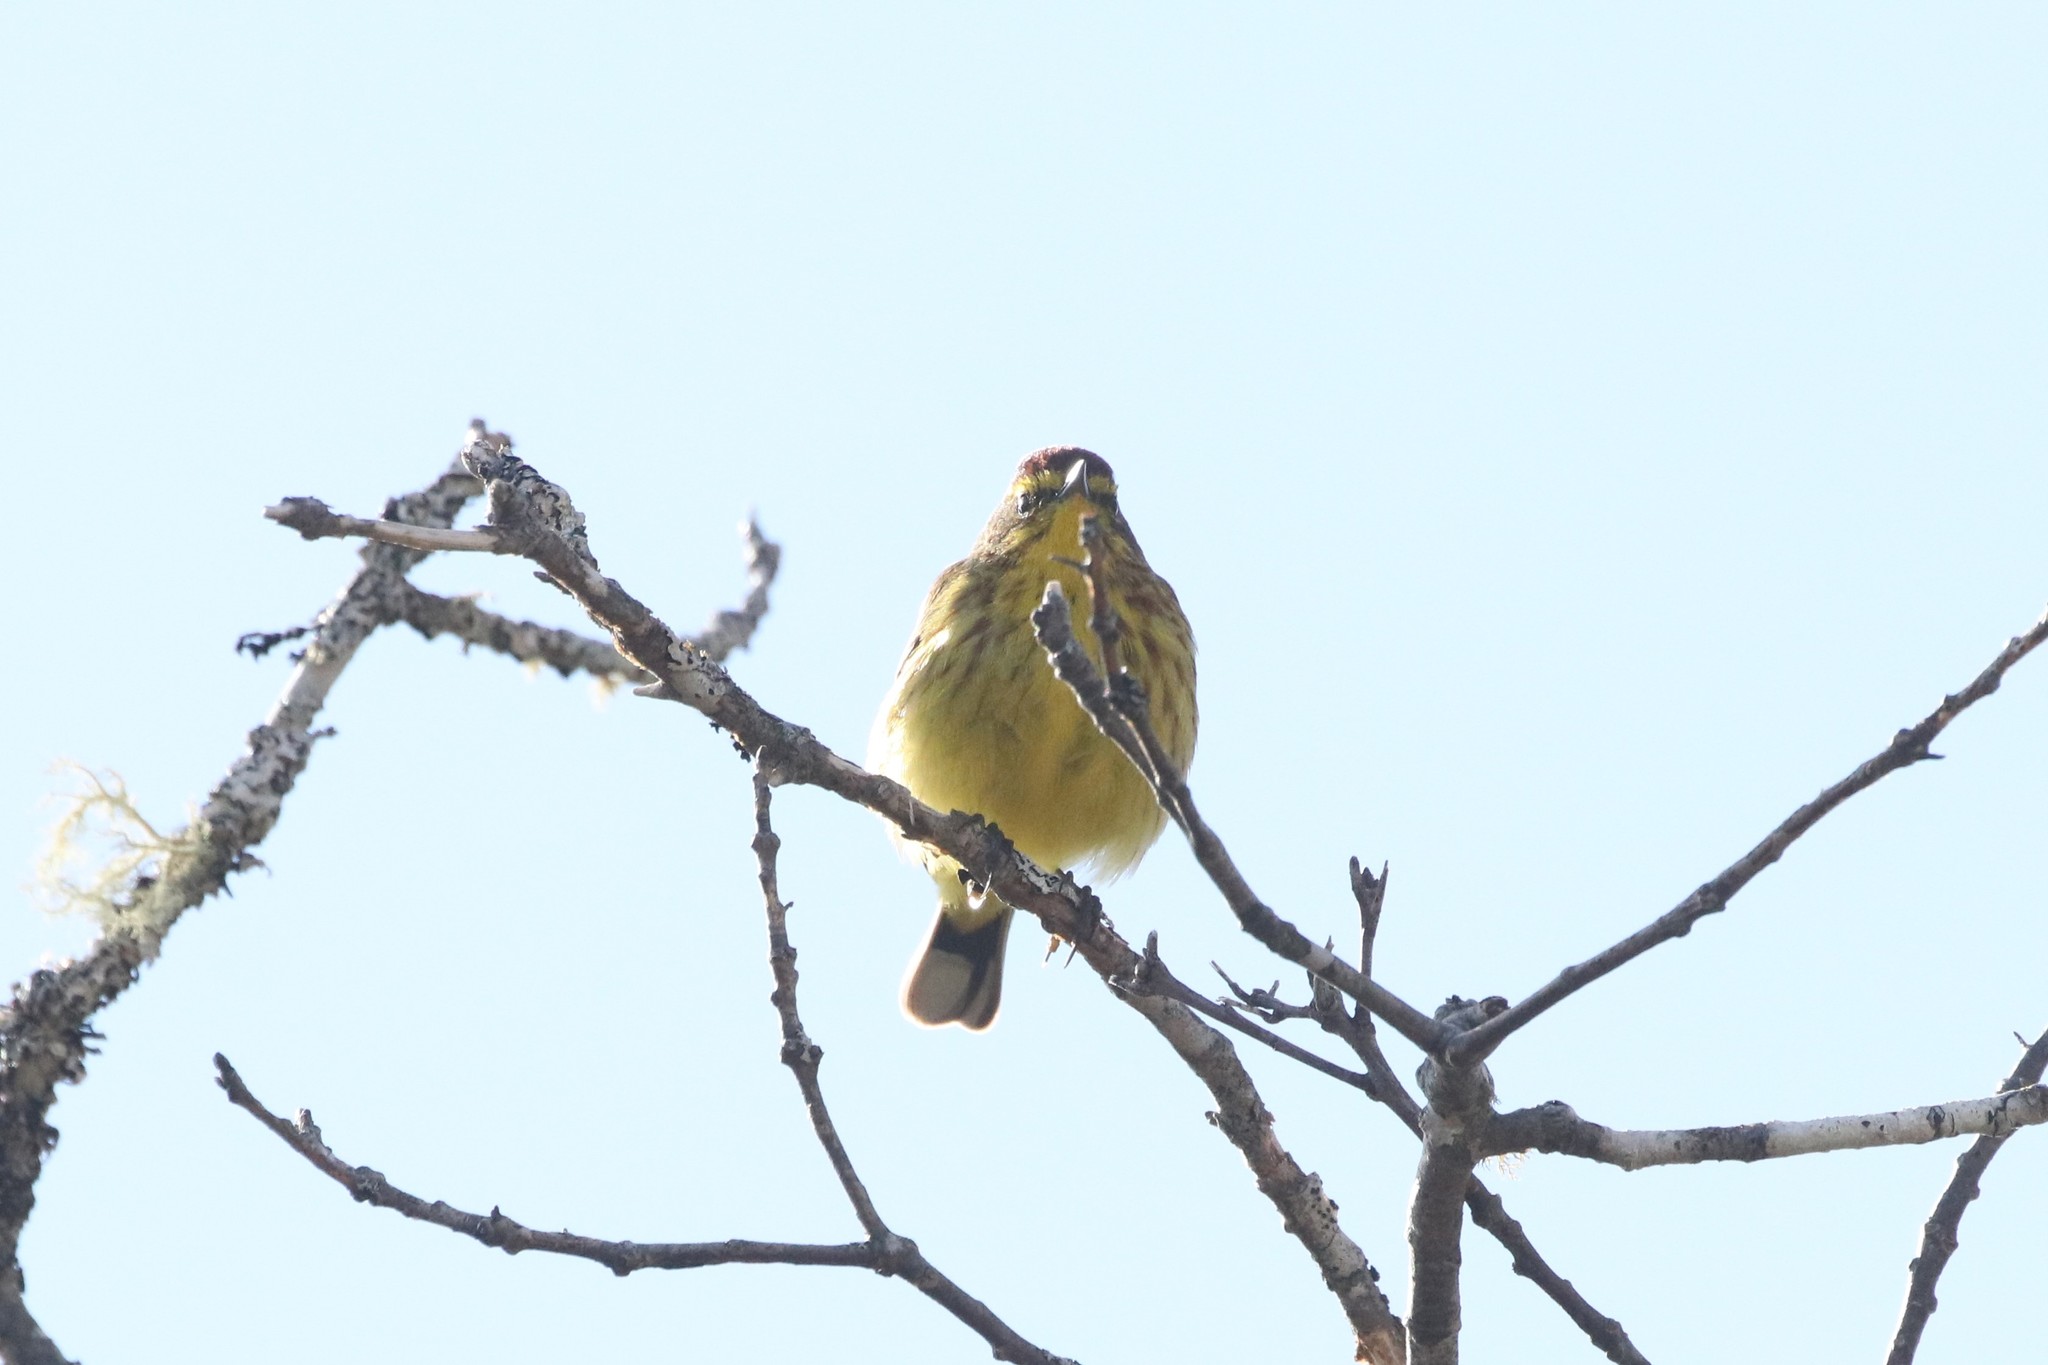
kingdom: Animalia
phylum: Chordata
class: Aves
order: Passeriformes
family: Parulidae
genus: Setophaga
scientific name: Setophaga palmarum
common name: Palm warbler
